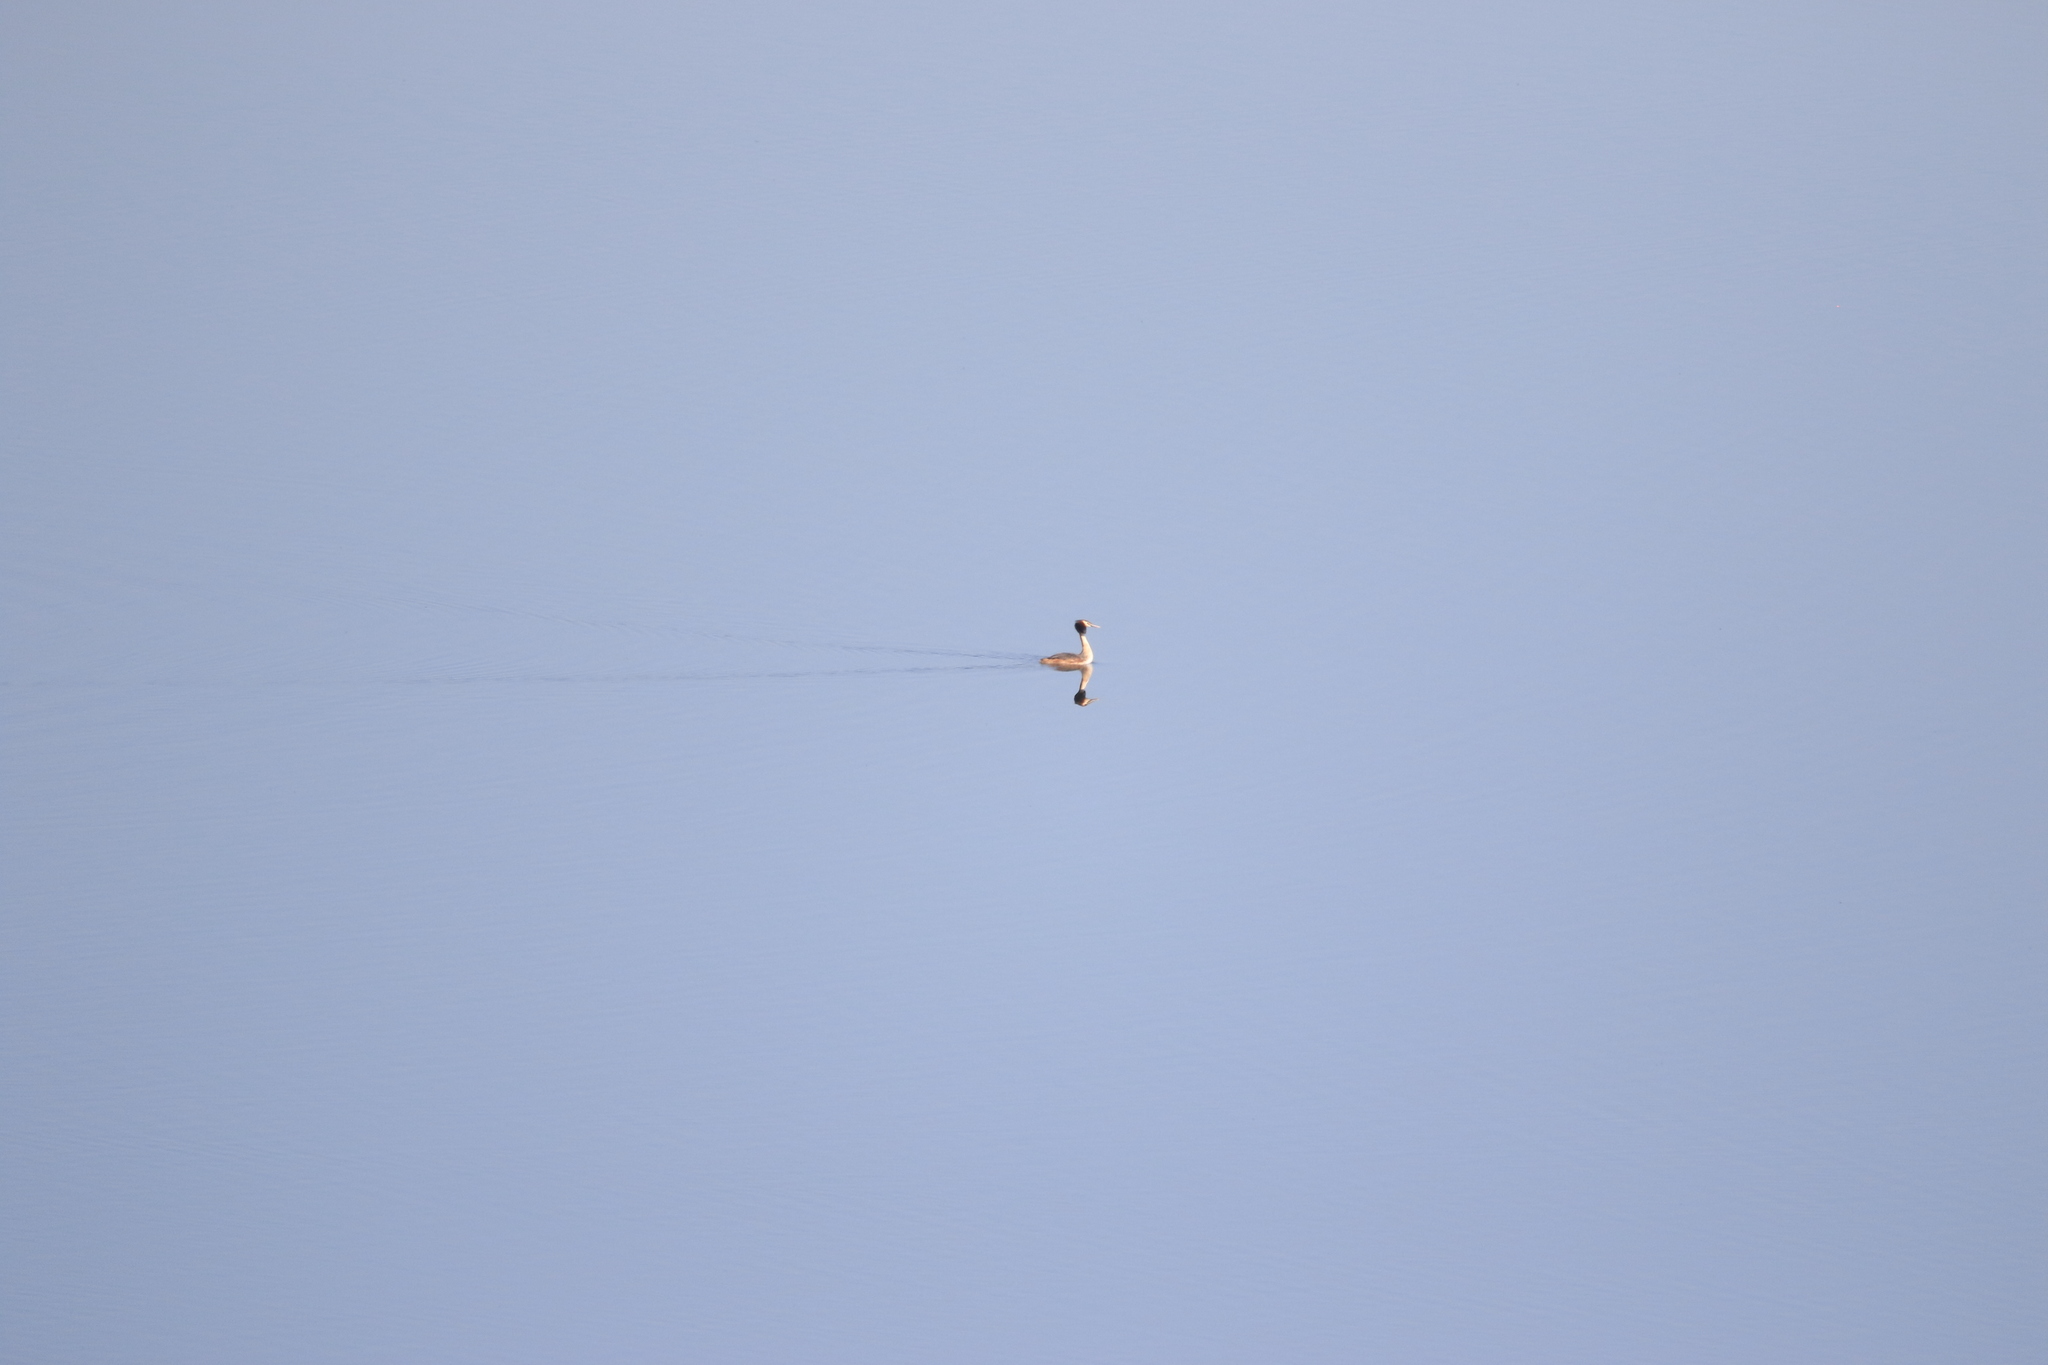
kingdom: Animalia
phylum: Chordata
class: Aves
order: Podicipediformes
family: Podicipedidae
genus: Podiceps
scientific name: Podiceps cristatus
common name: Great crested grebe
